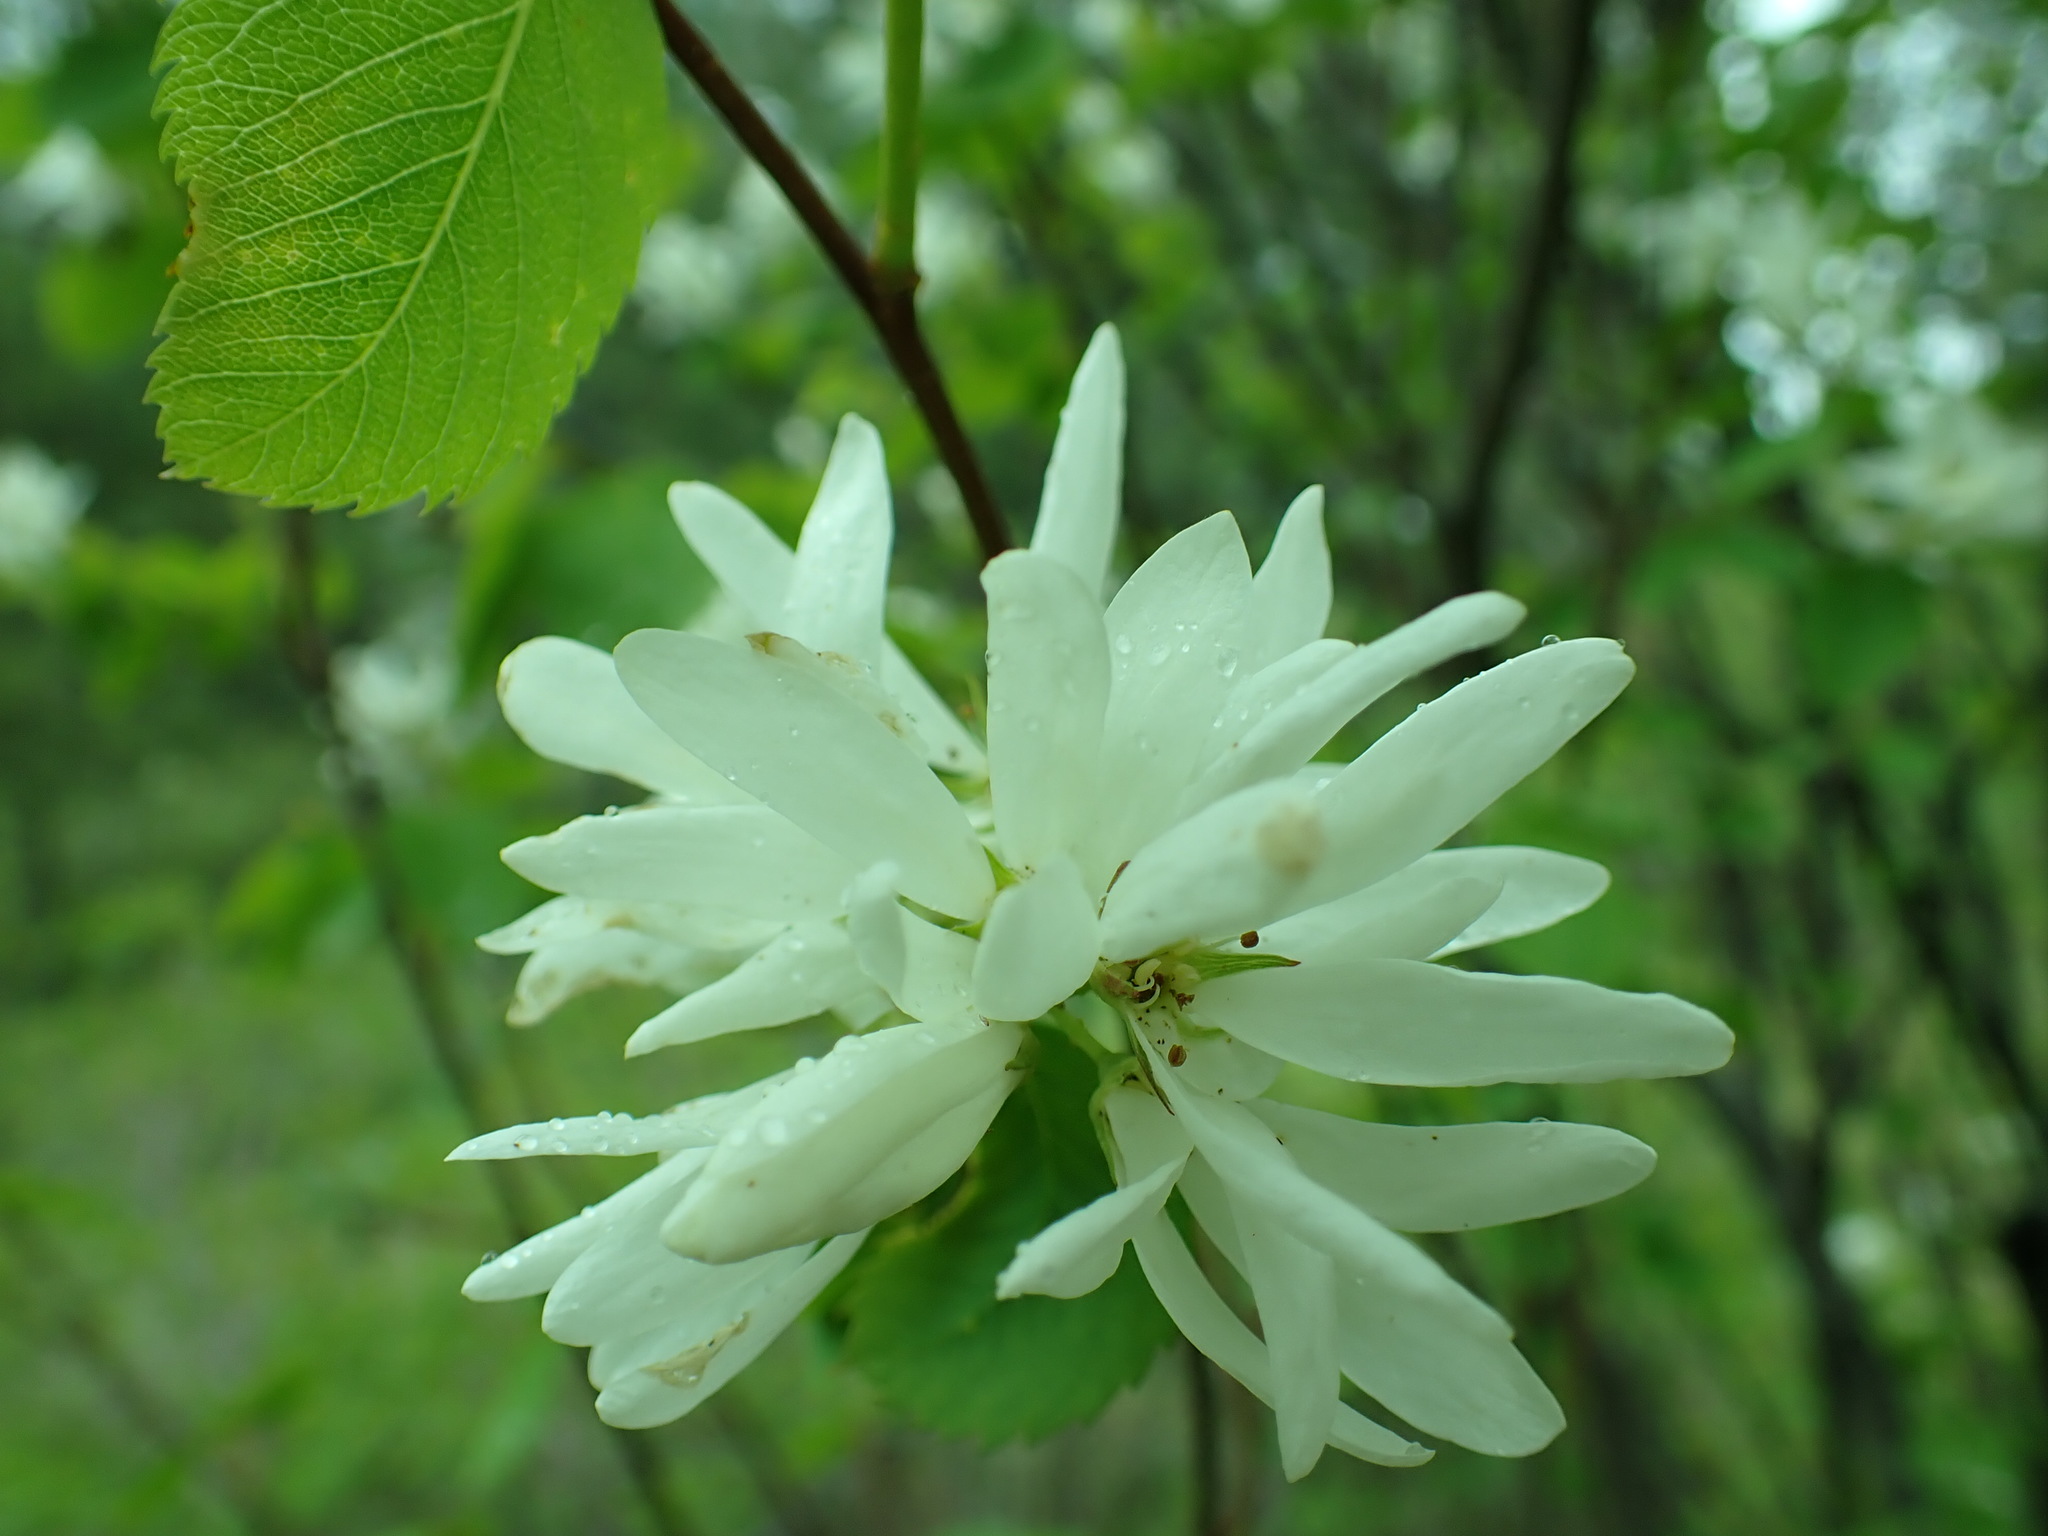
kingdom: Plantae
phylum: Tracheophyta
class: Magnoliopsida
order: Rosales
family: Rosaceae
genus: Amelanchier
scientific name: Amelanchier alnifolia
